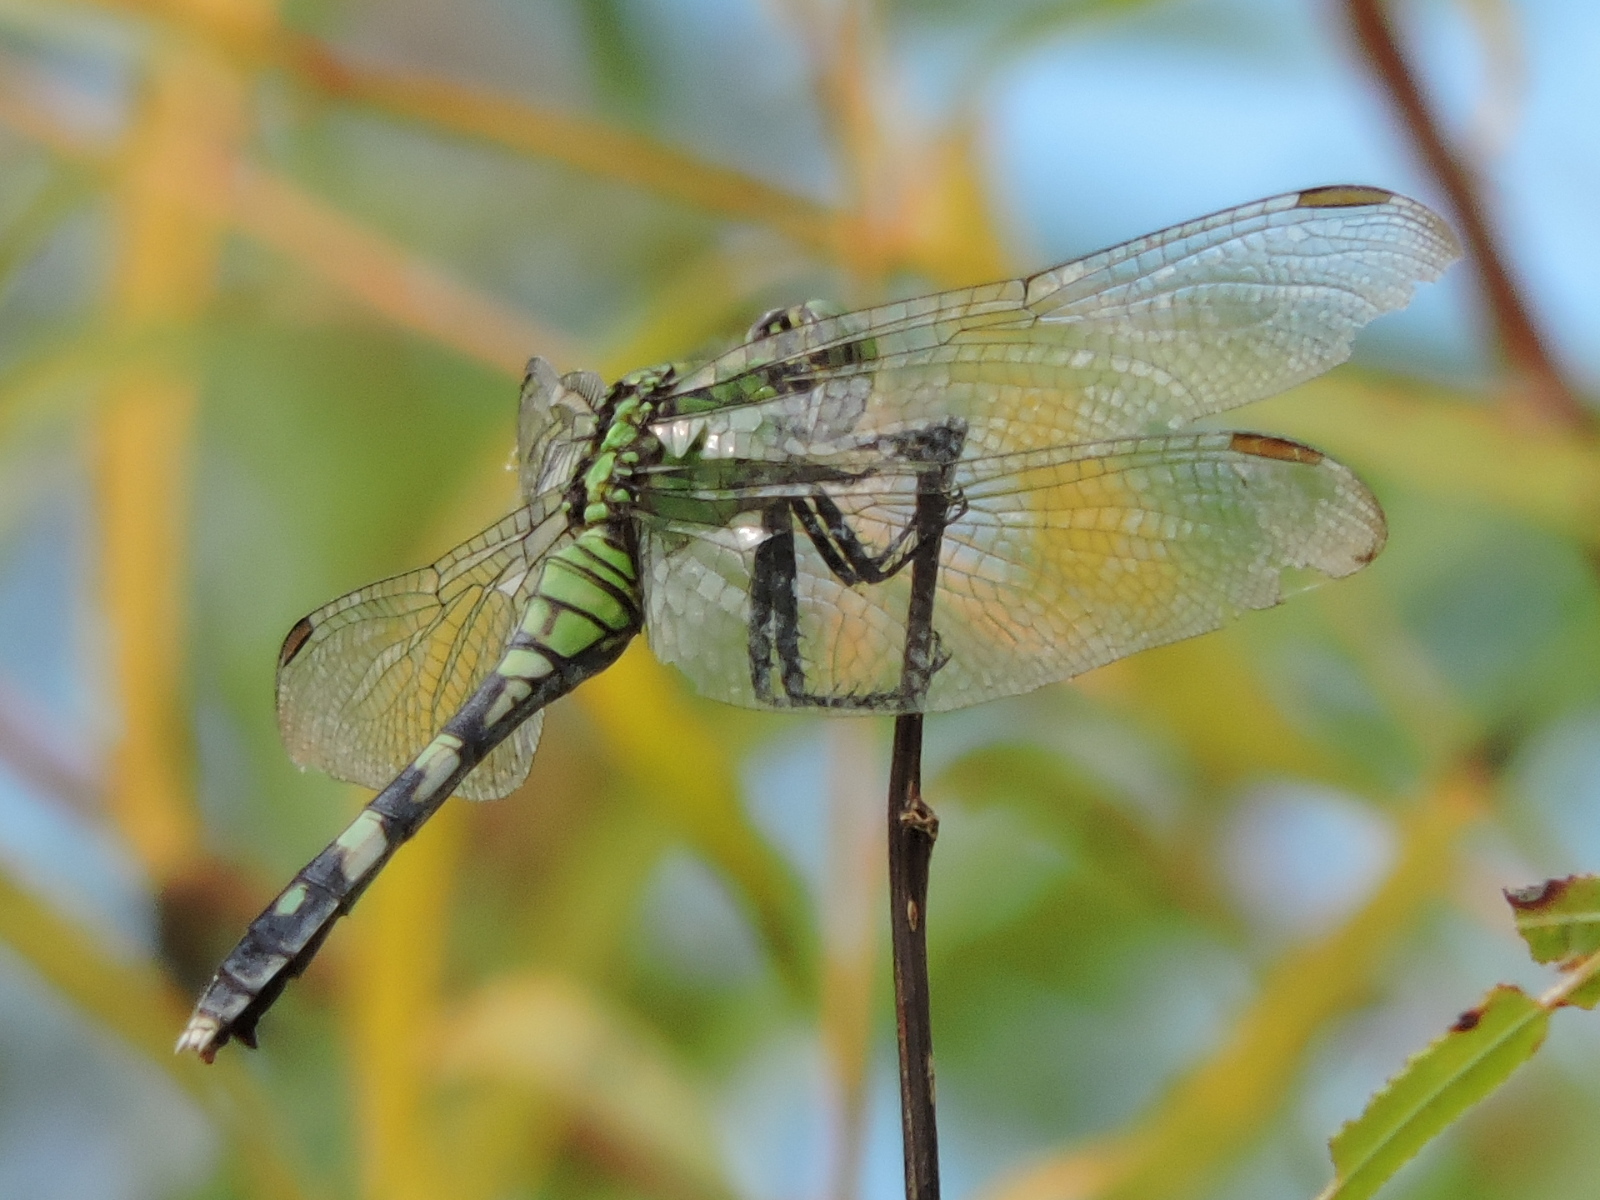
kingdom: Animalia
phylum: Arthropoda
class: Insecta
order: Odonata
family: Libellulidae
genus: Erythemis
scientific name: Erythemis simplicicollis
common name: Eastern pondhawk
